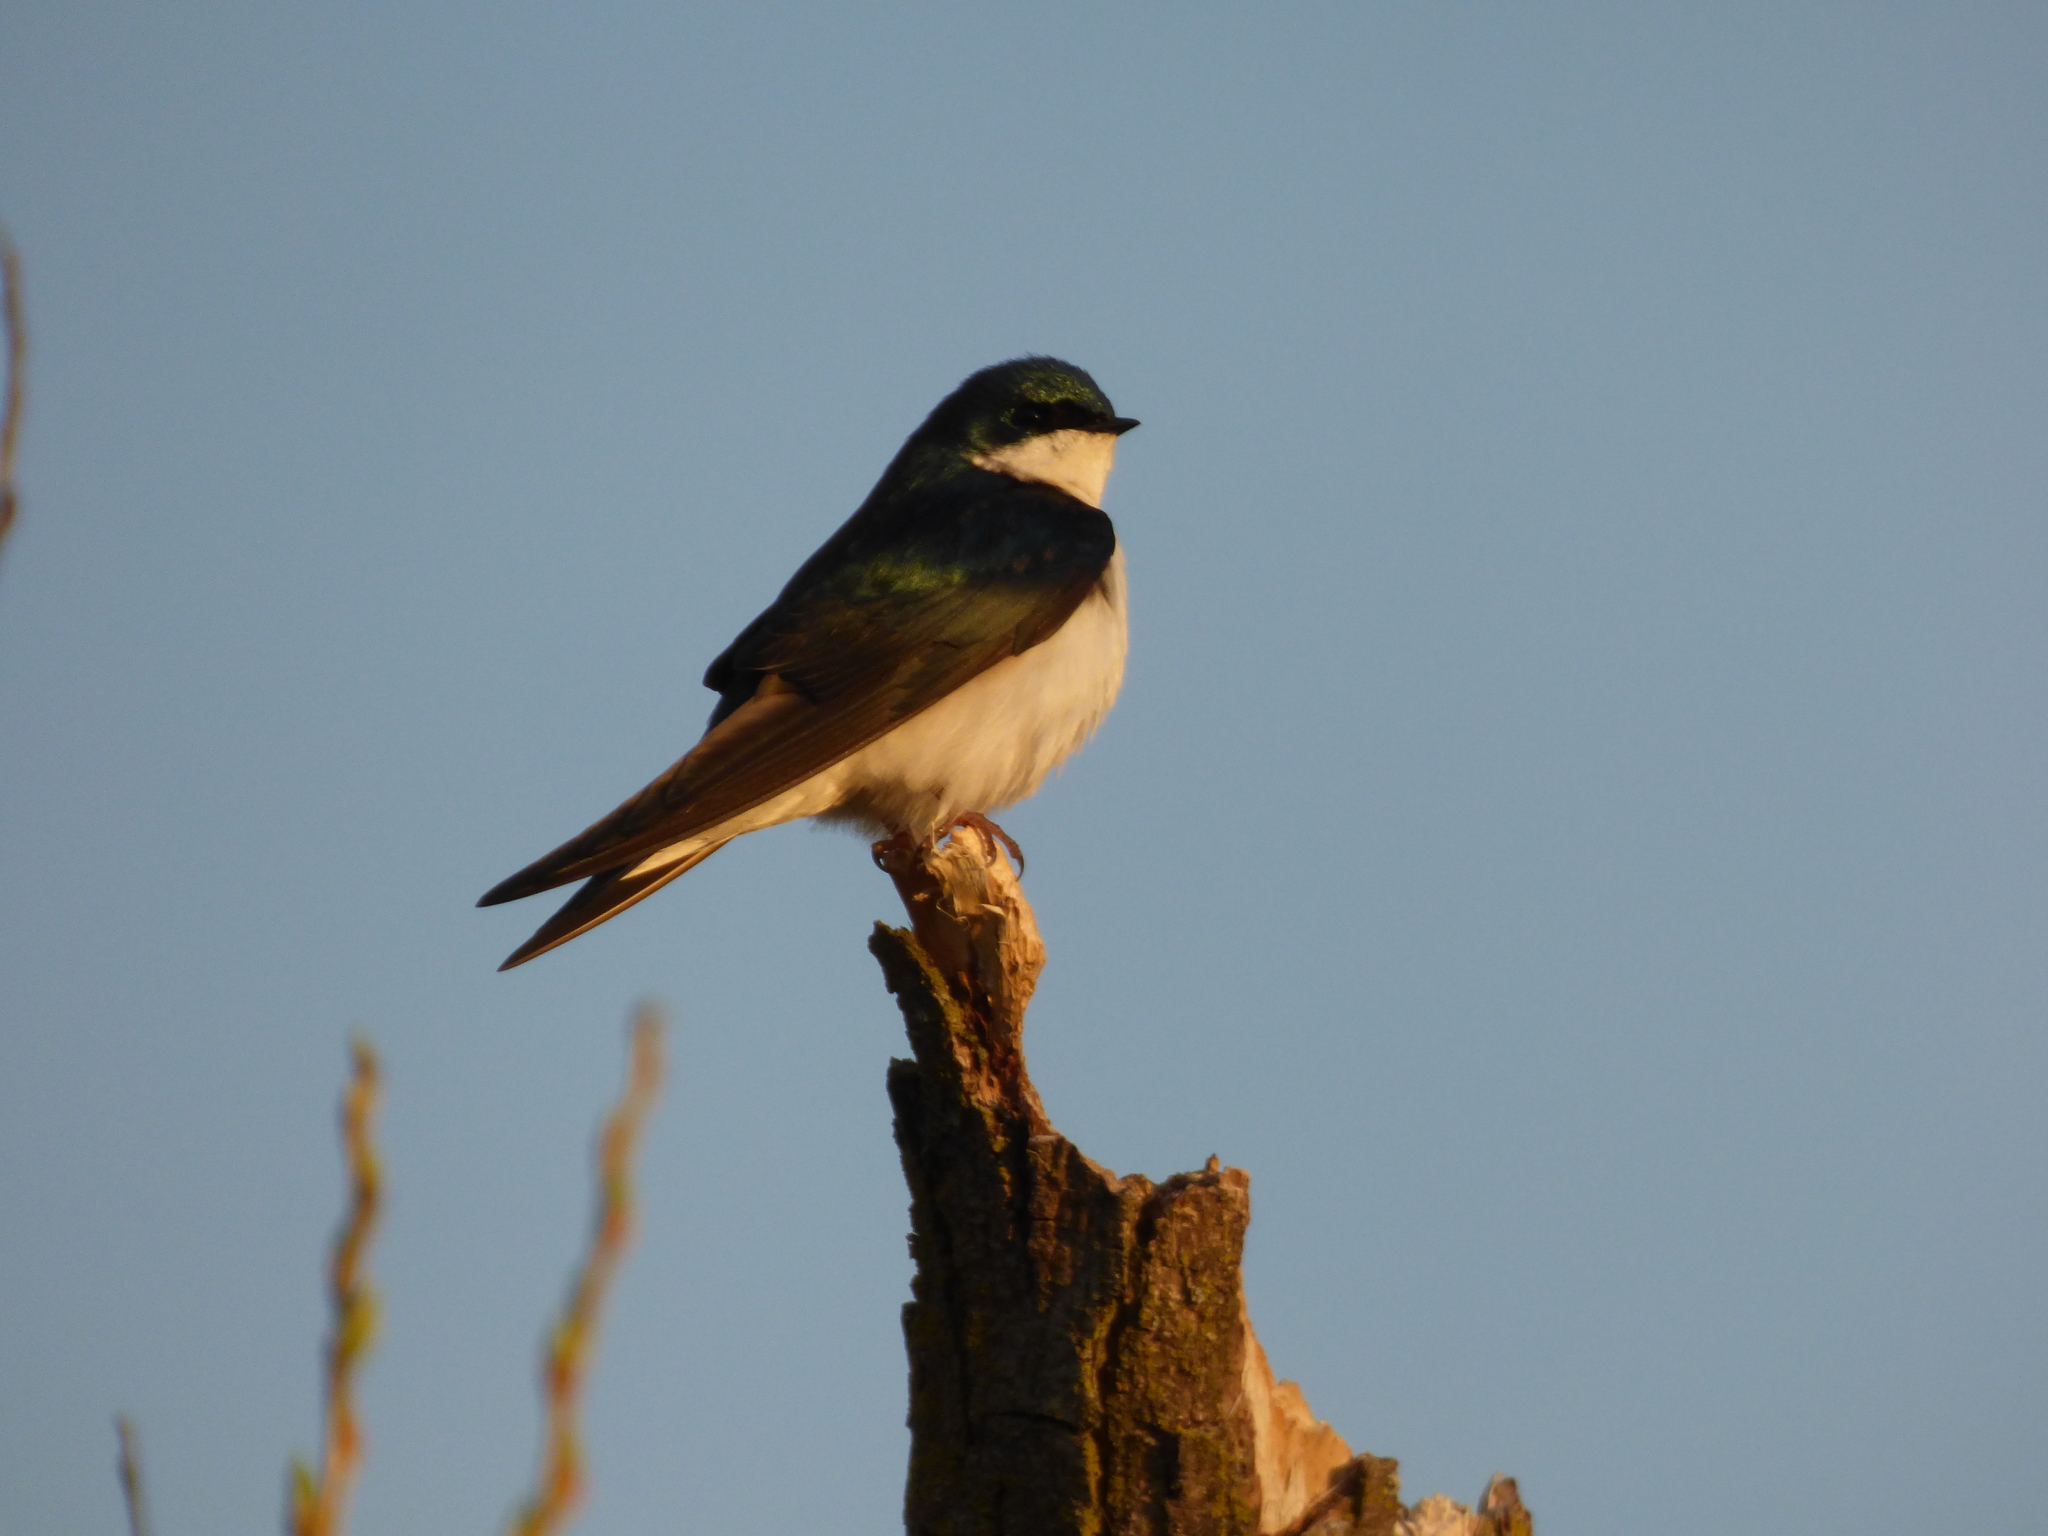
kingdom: Animalia
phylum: Chordata
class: Aves
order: Passeriformes
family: Hirundinidae
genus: Tachycineta
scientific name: Tachycineta bicolor
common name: Tree swallow
